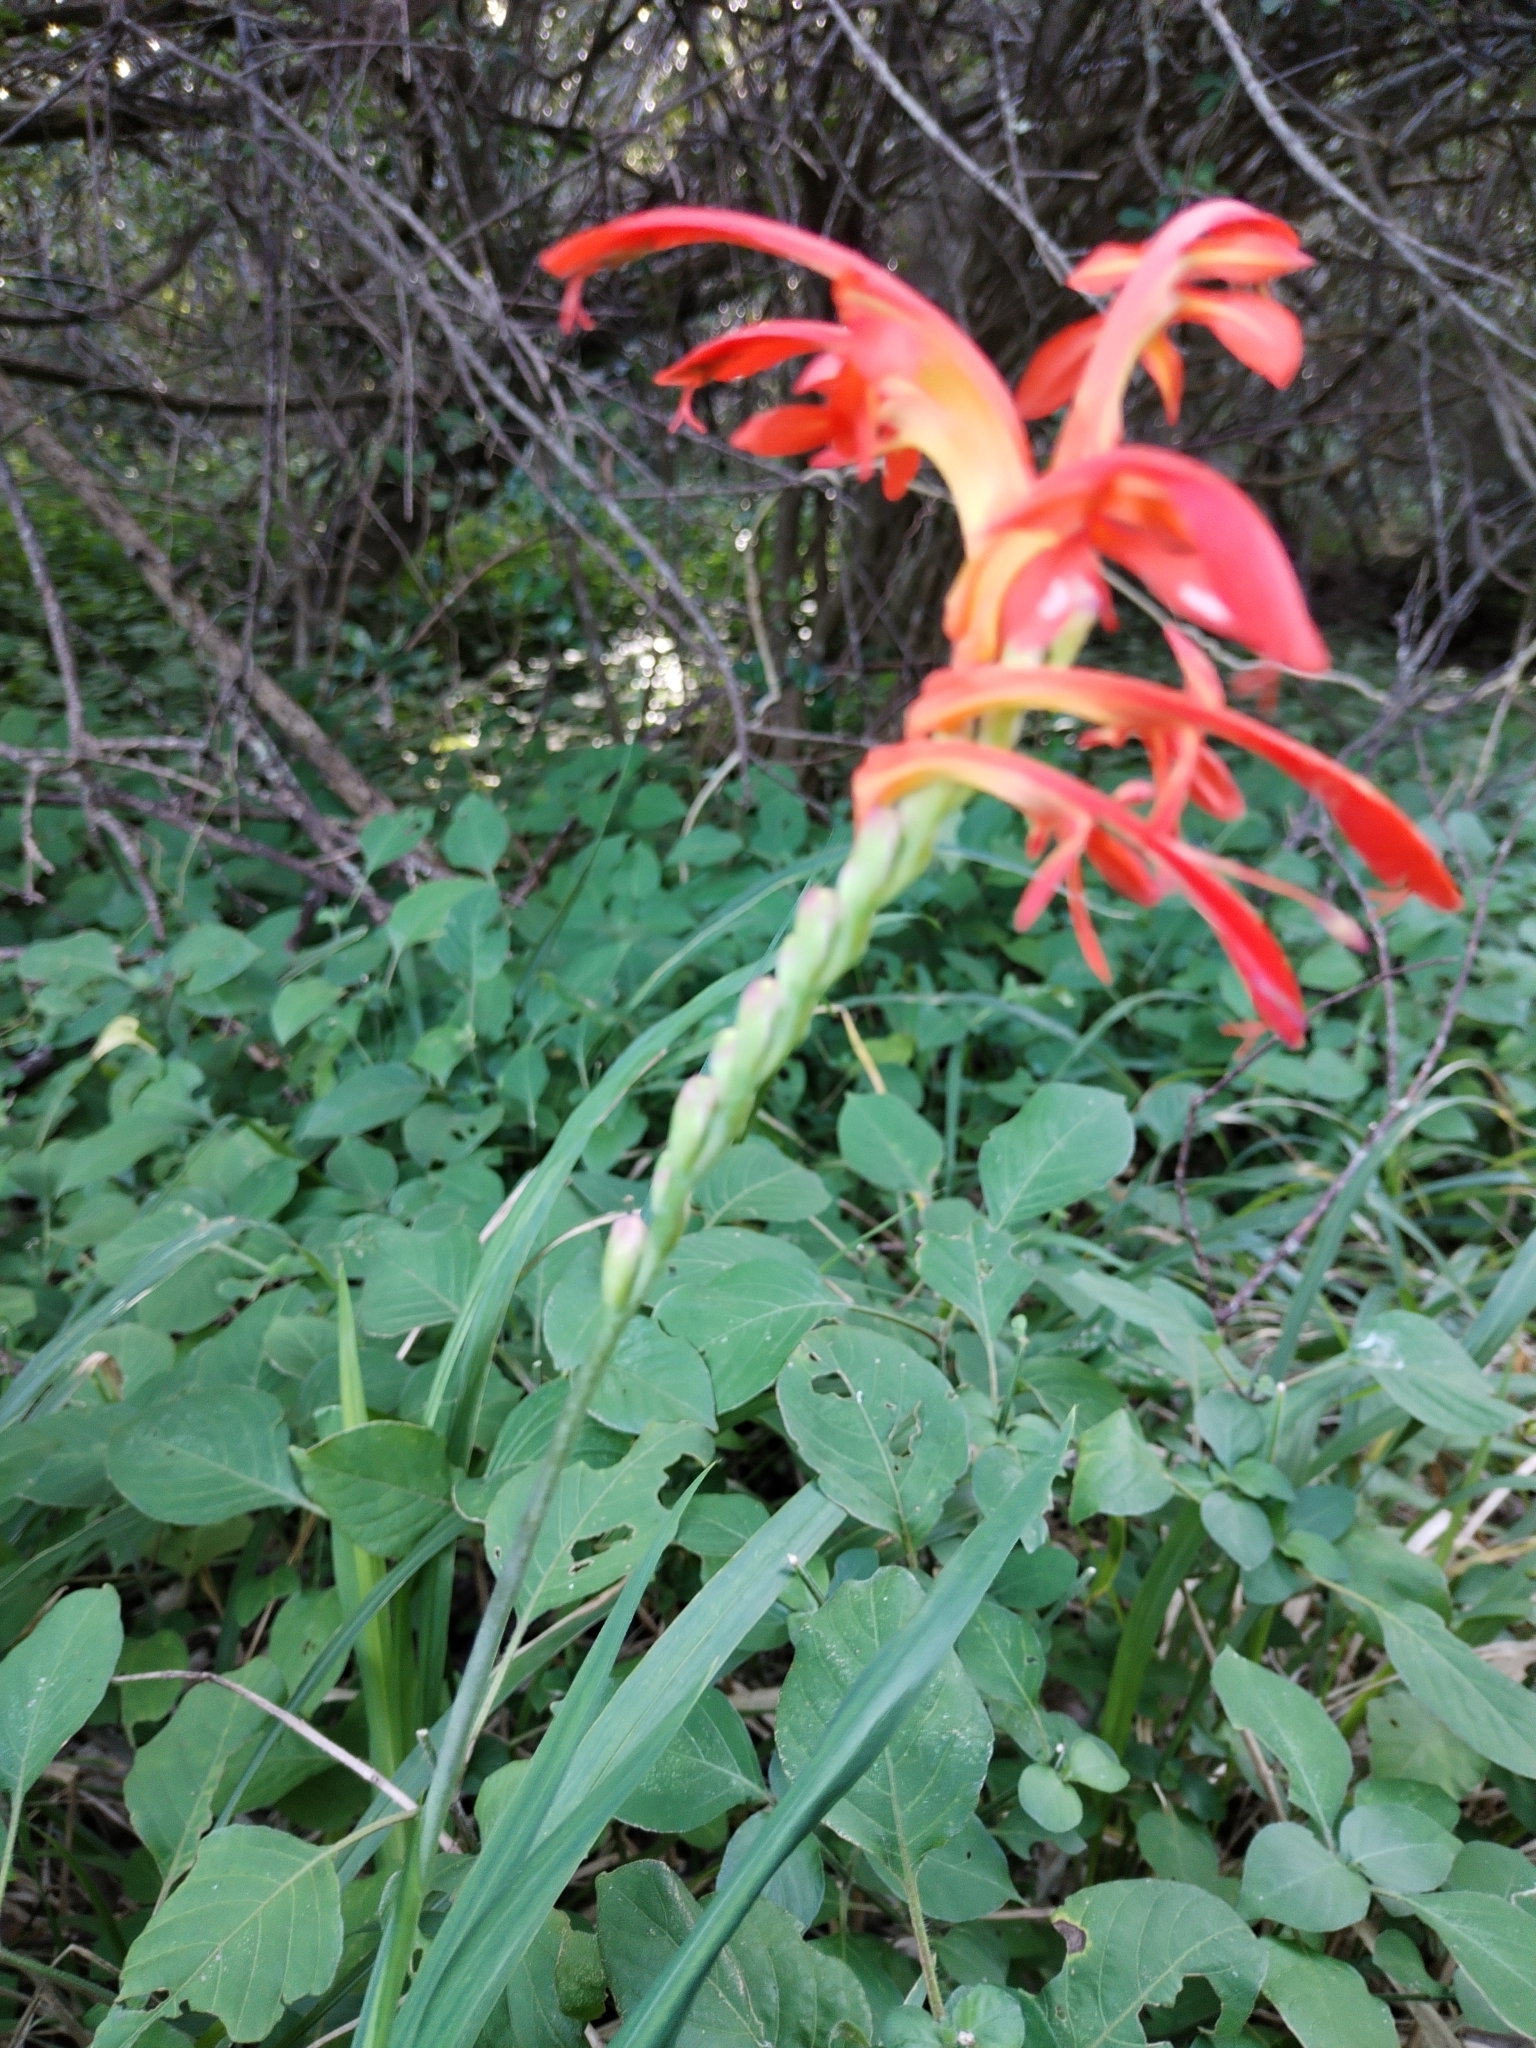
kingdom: Plantae
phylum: Tracheophyta
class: Liliopsida
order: Asparagales
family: Iridaceae
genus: Chasmanthe
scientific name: Chasmanthe aethiopica
